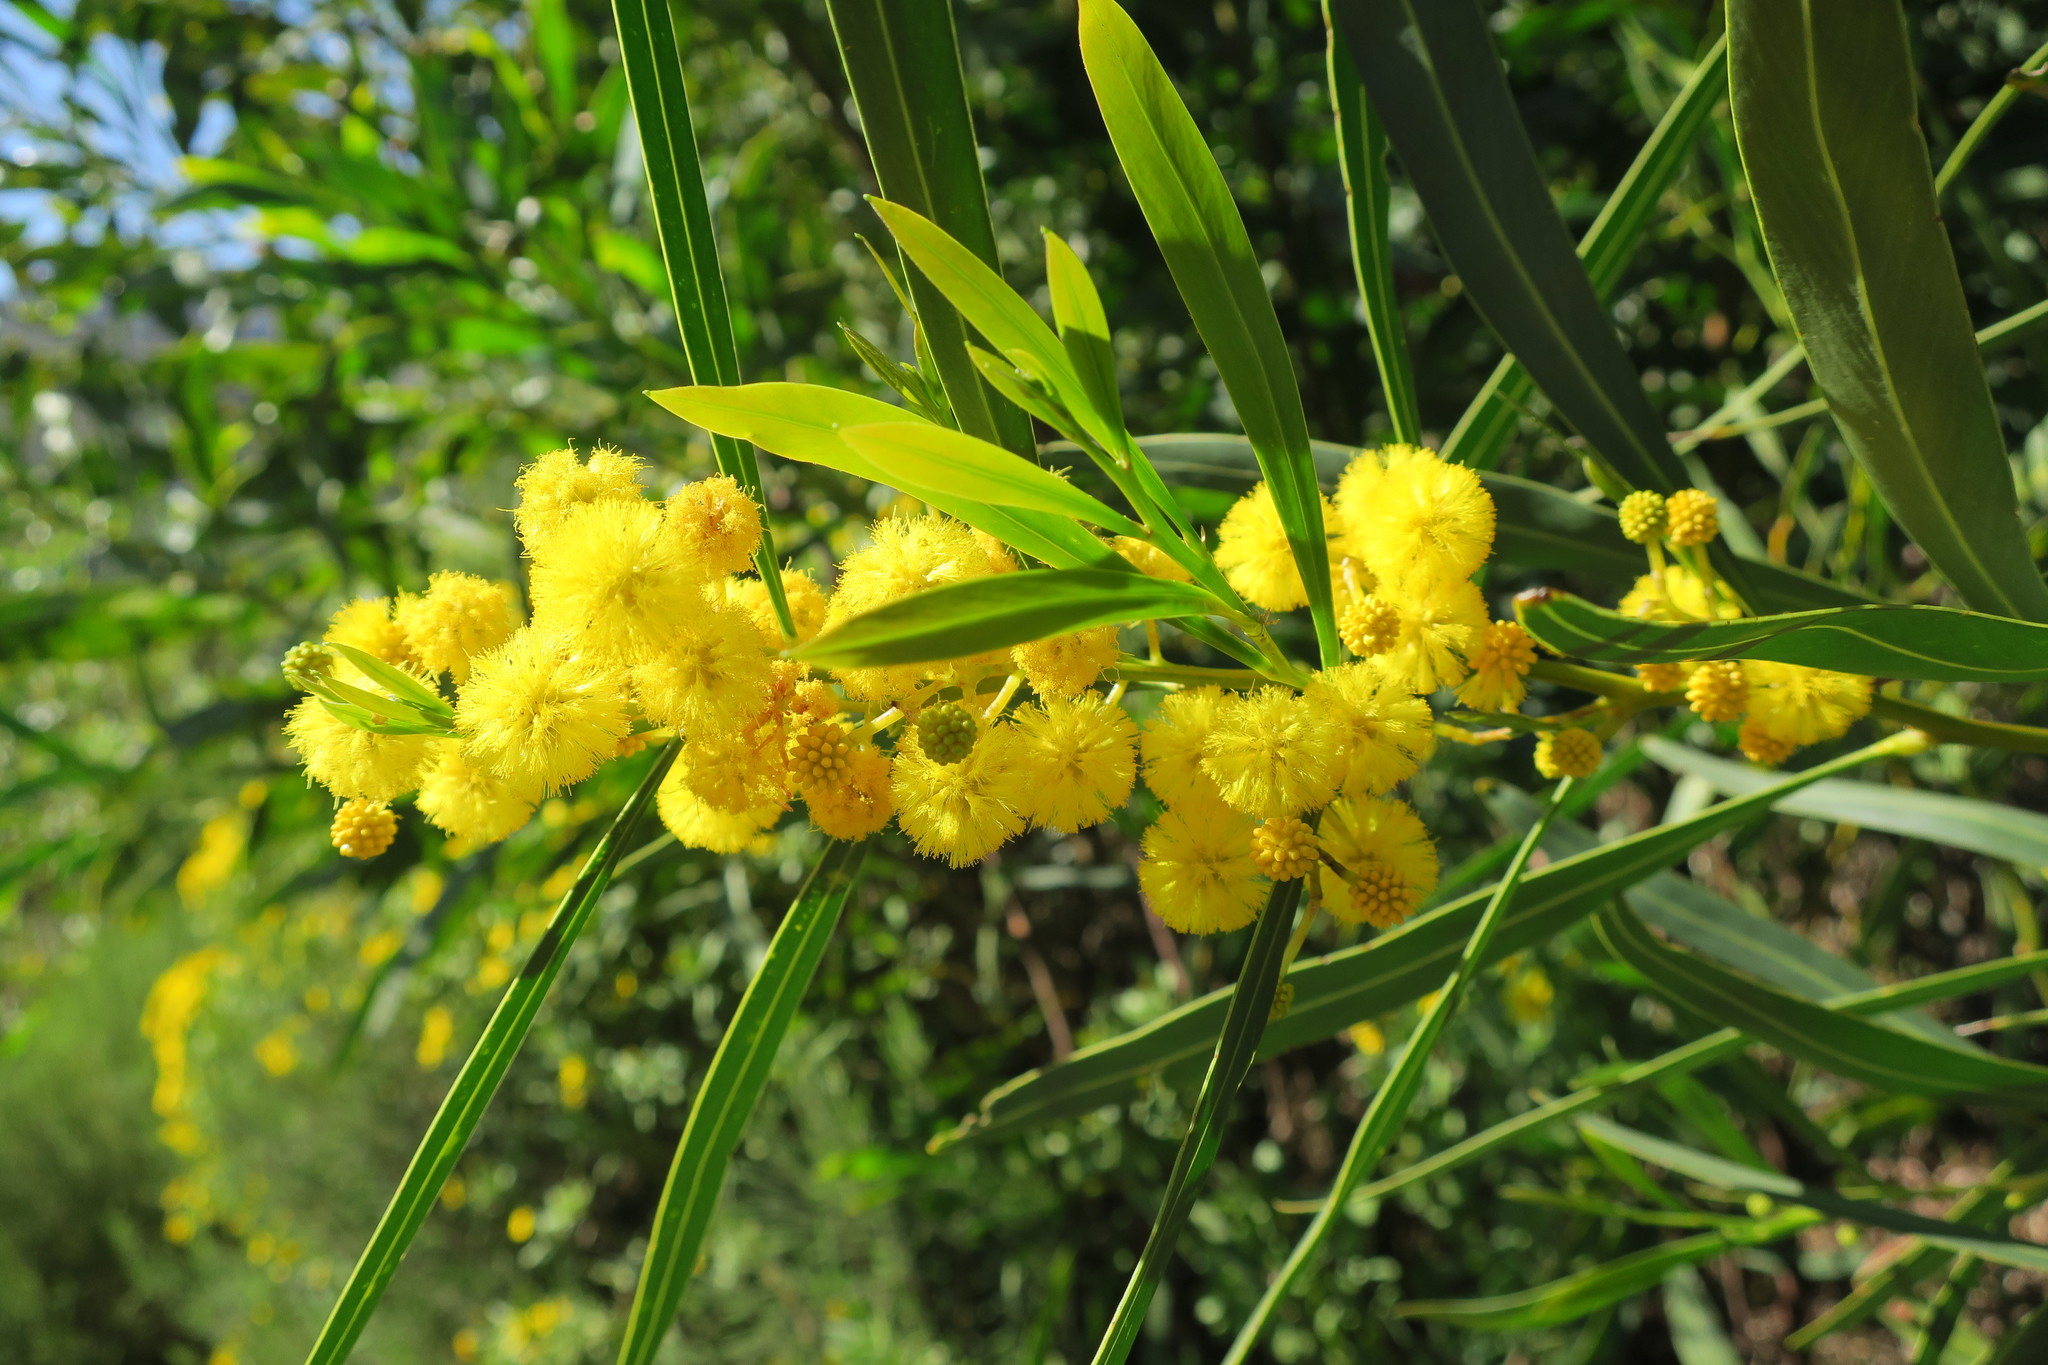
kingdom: Plantae
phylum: Tracheophyta
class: Magnoliopsida
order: Ericales
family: Ericaceae
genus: Erica
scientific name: Erica baccans
